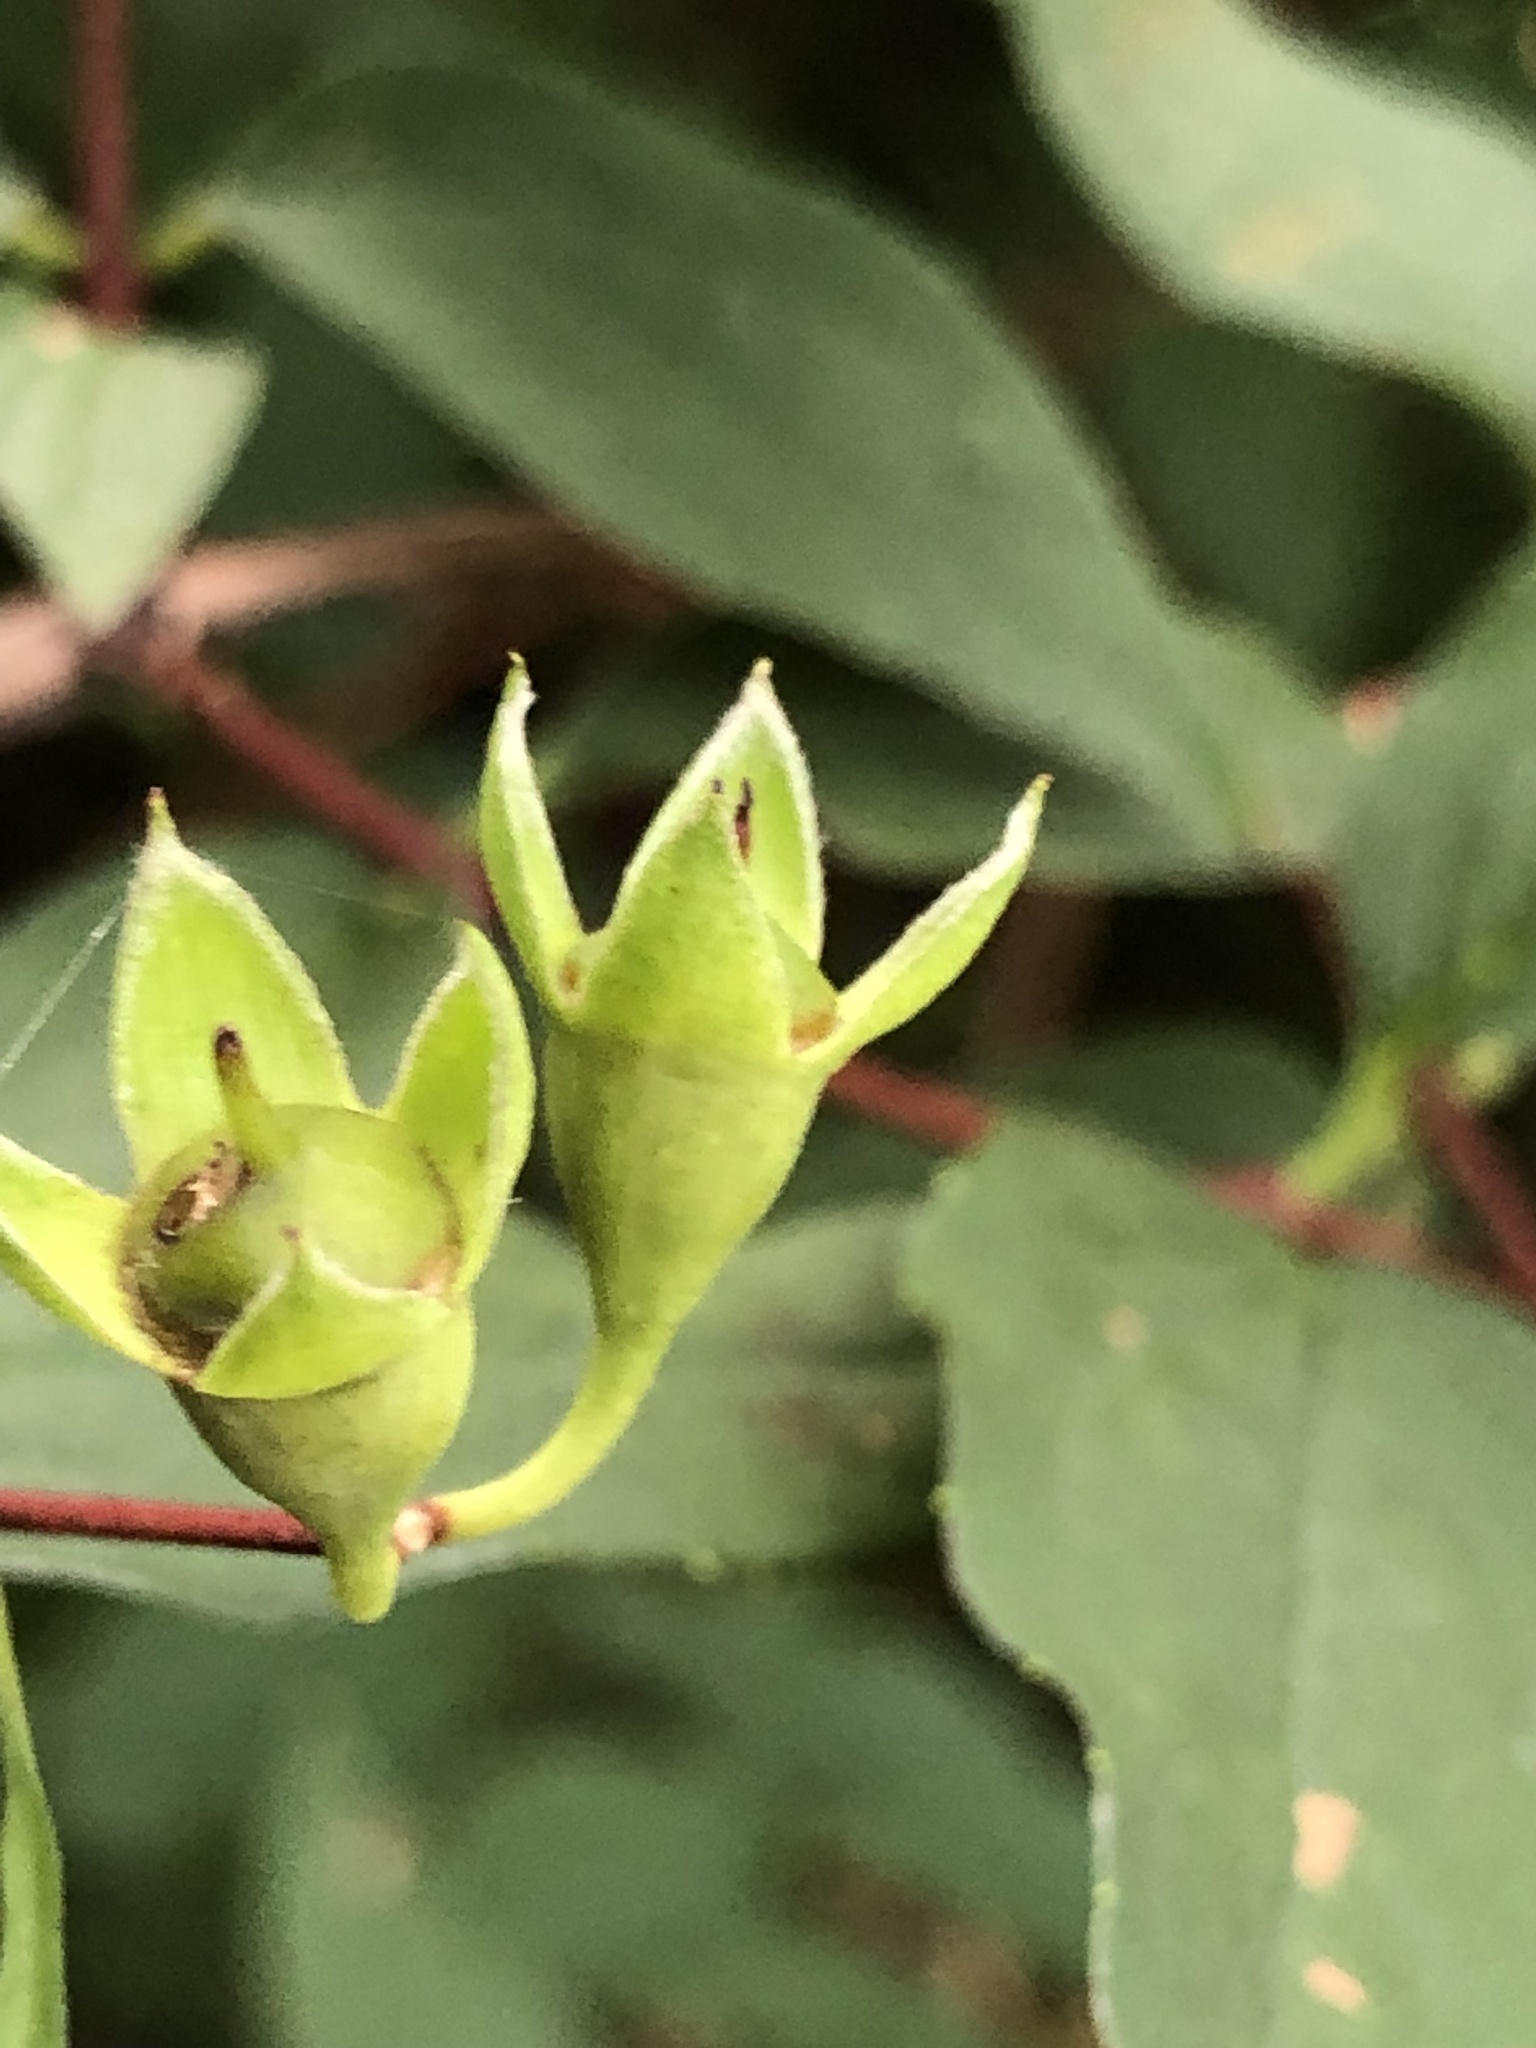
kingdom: Plantae
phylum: Tracheophyta
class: Magnoliopsida
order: Cornales
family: Hydrangeaceae
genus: Philadelphus
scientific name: Philadelphus coronarius
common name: Mock orange
